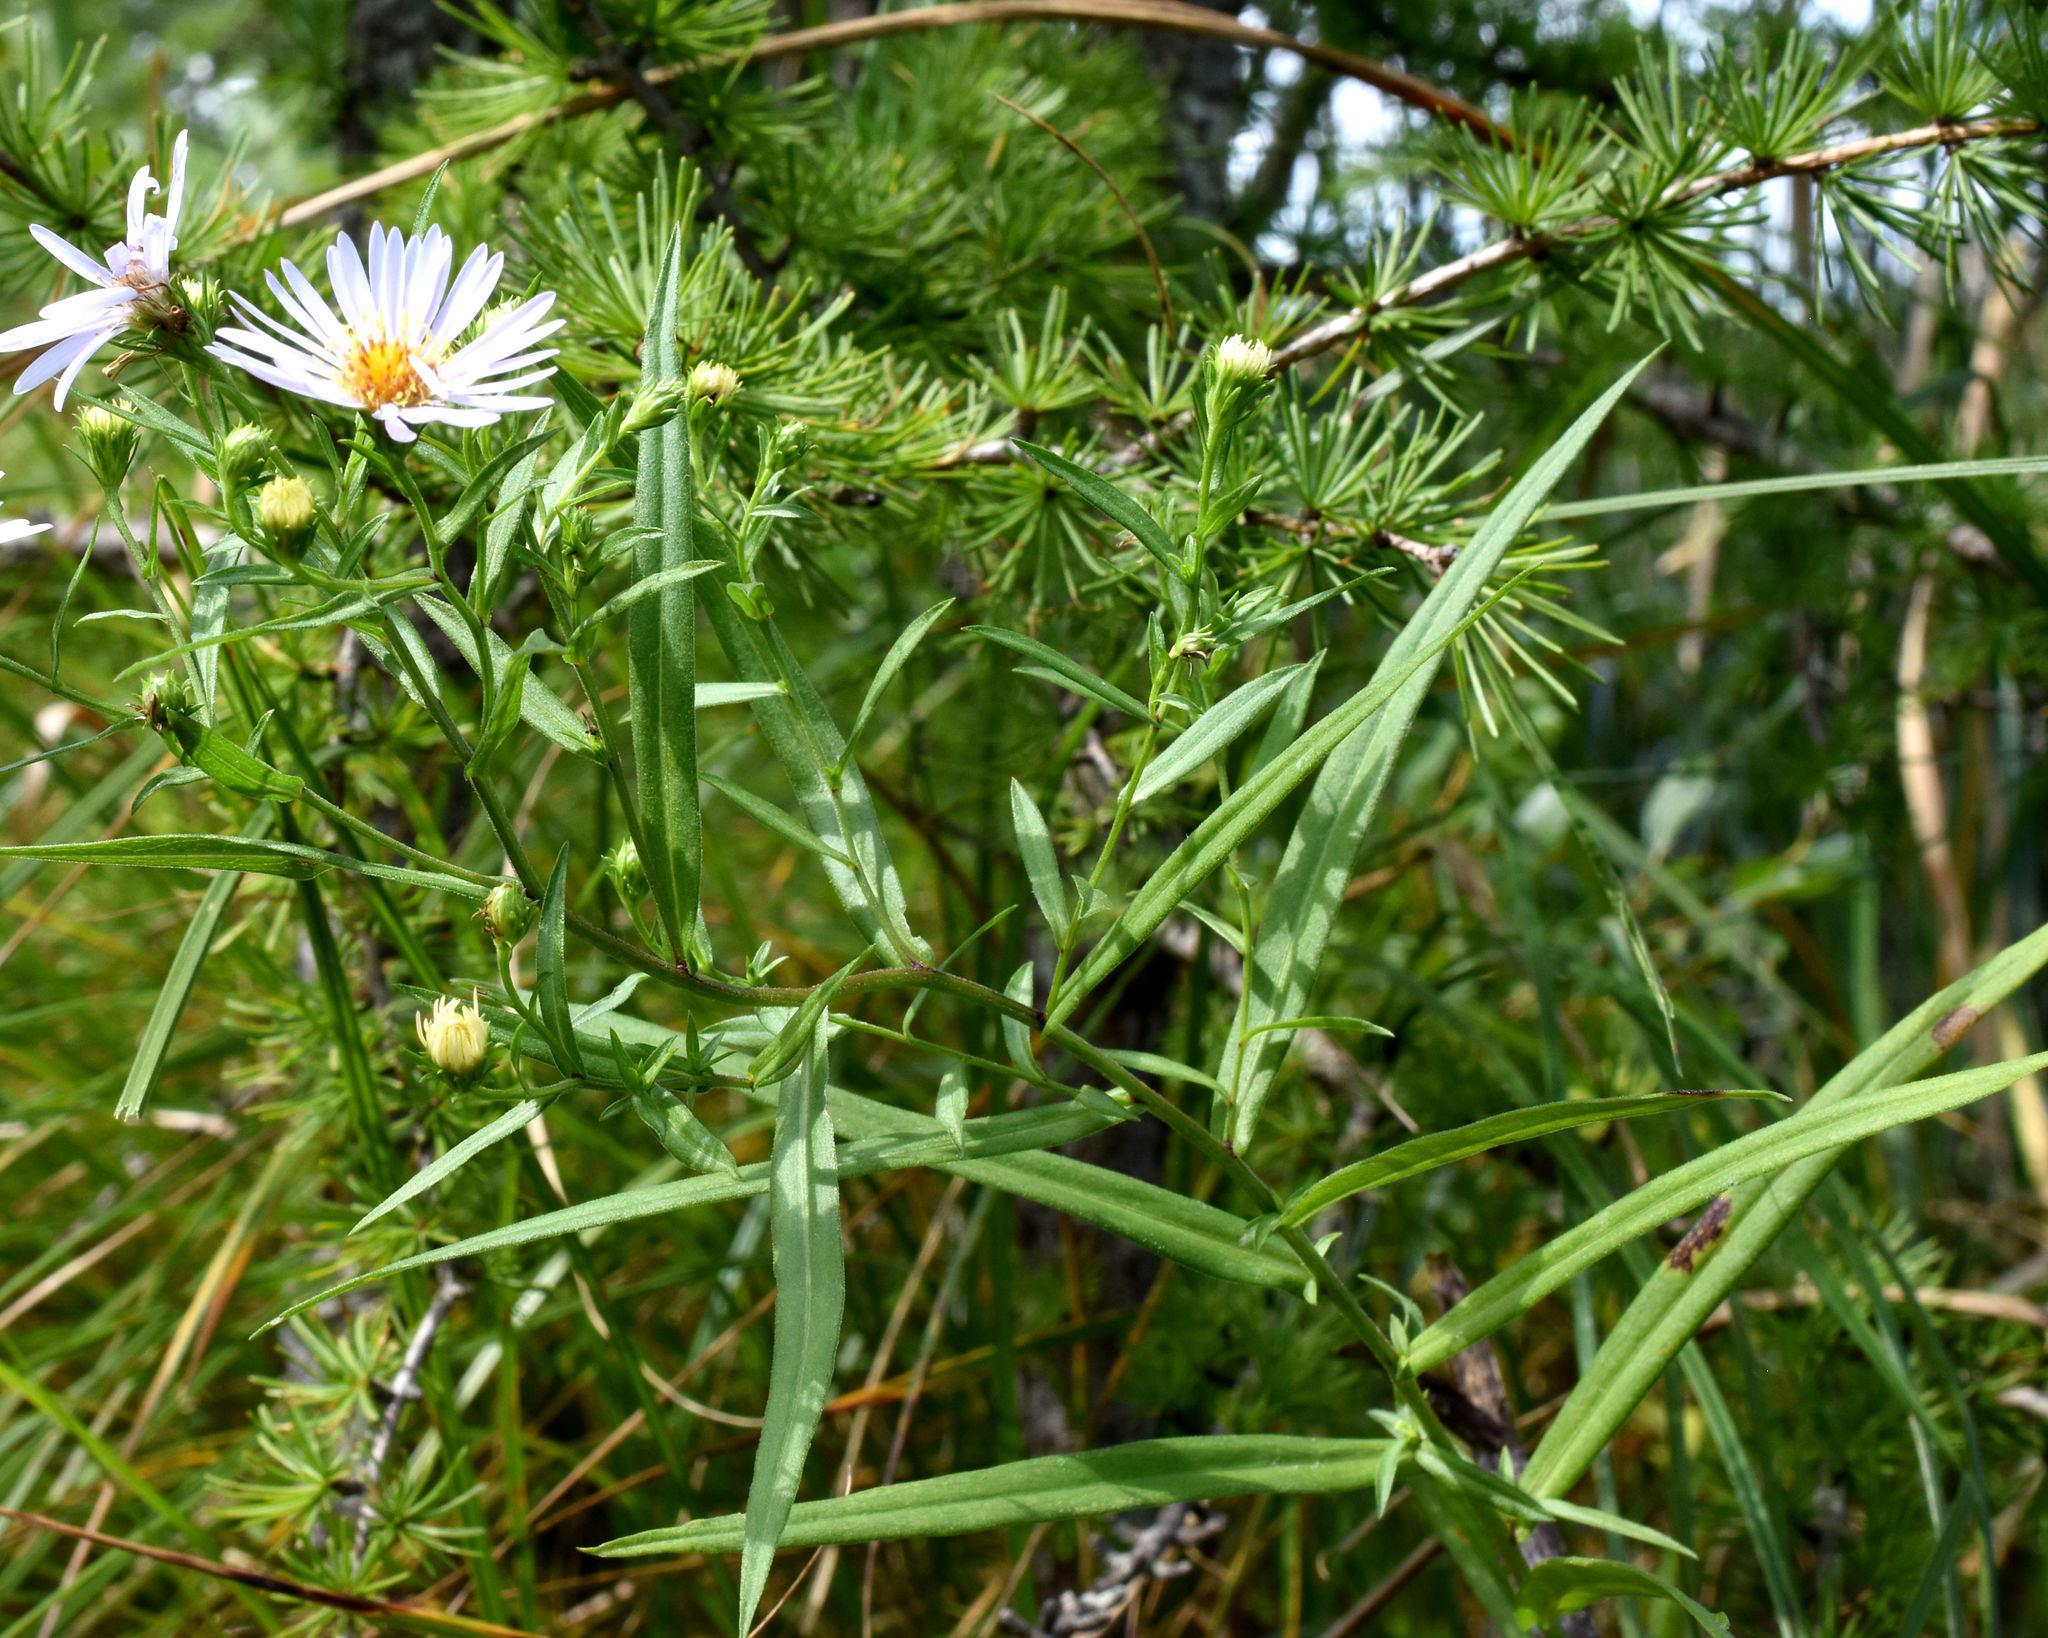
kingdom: Plantae
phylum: Tracheophyta
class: Magnoliopsida
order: Asterales
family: Asteraceae
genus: Symphyotrichum
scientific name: Symphyotrichum boreale
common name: Northern bog aster
